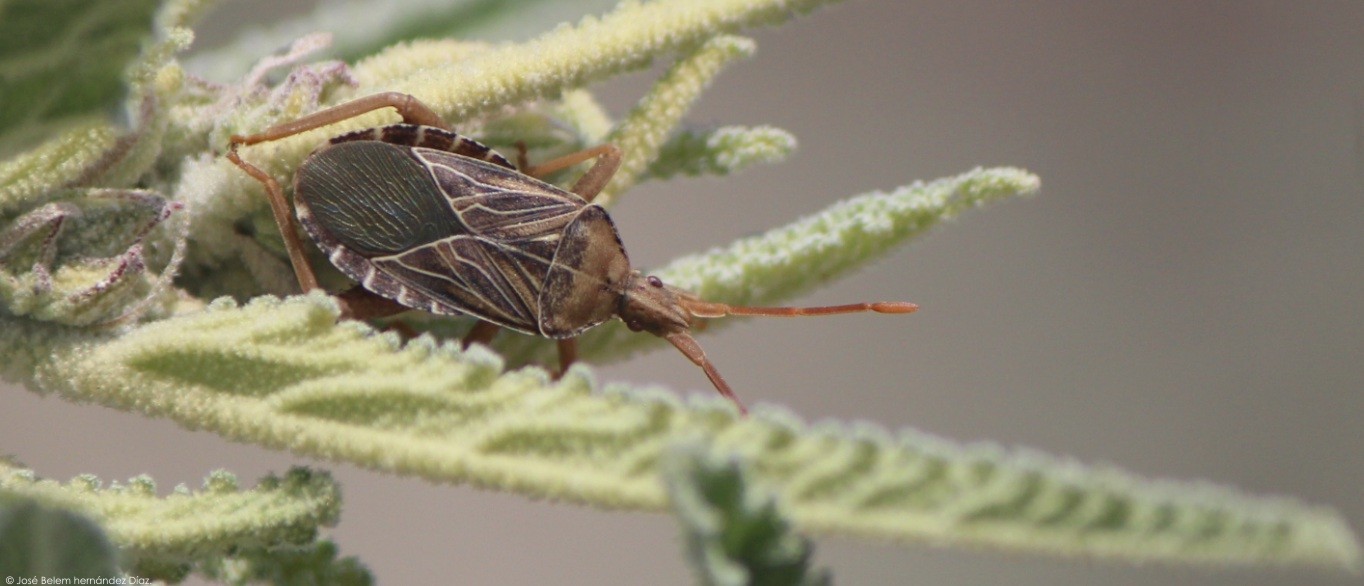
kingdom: Animalia
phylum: Arthropoda
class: Insecta
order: Hemiptera
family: Coreidae
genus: Chelinidea
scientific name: Chelinidea tabulata
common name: Prickly pear bug
